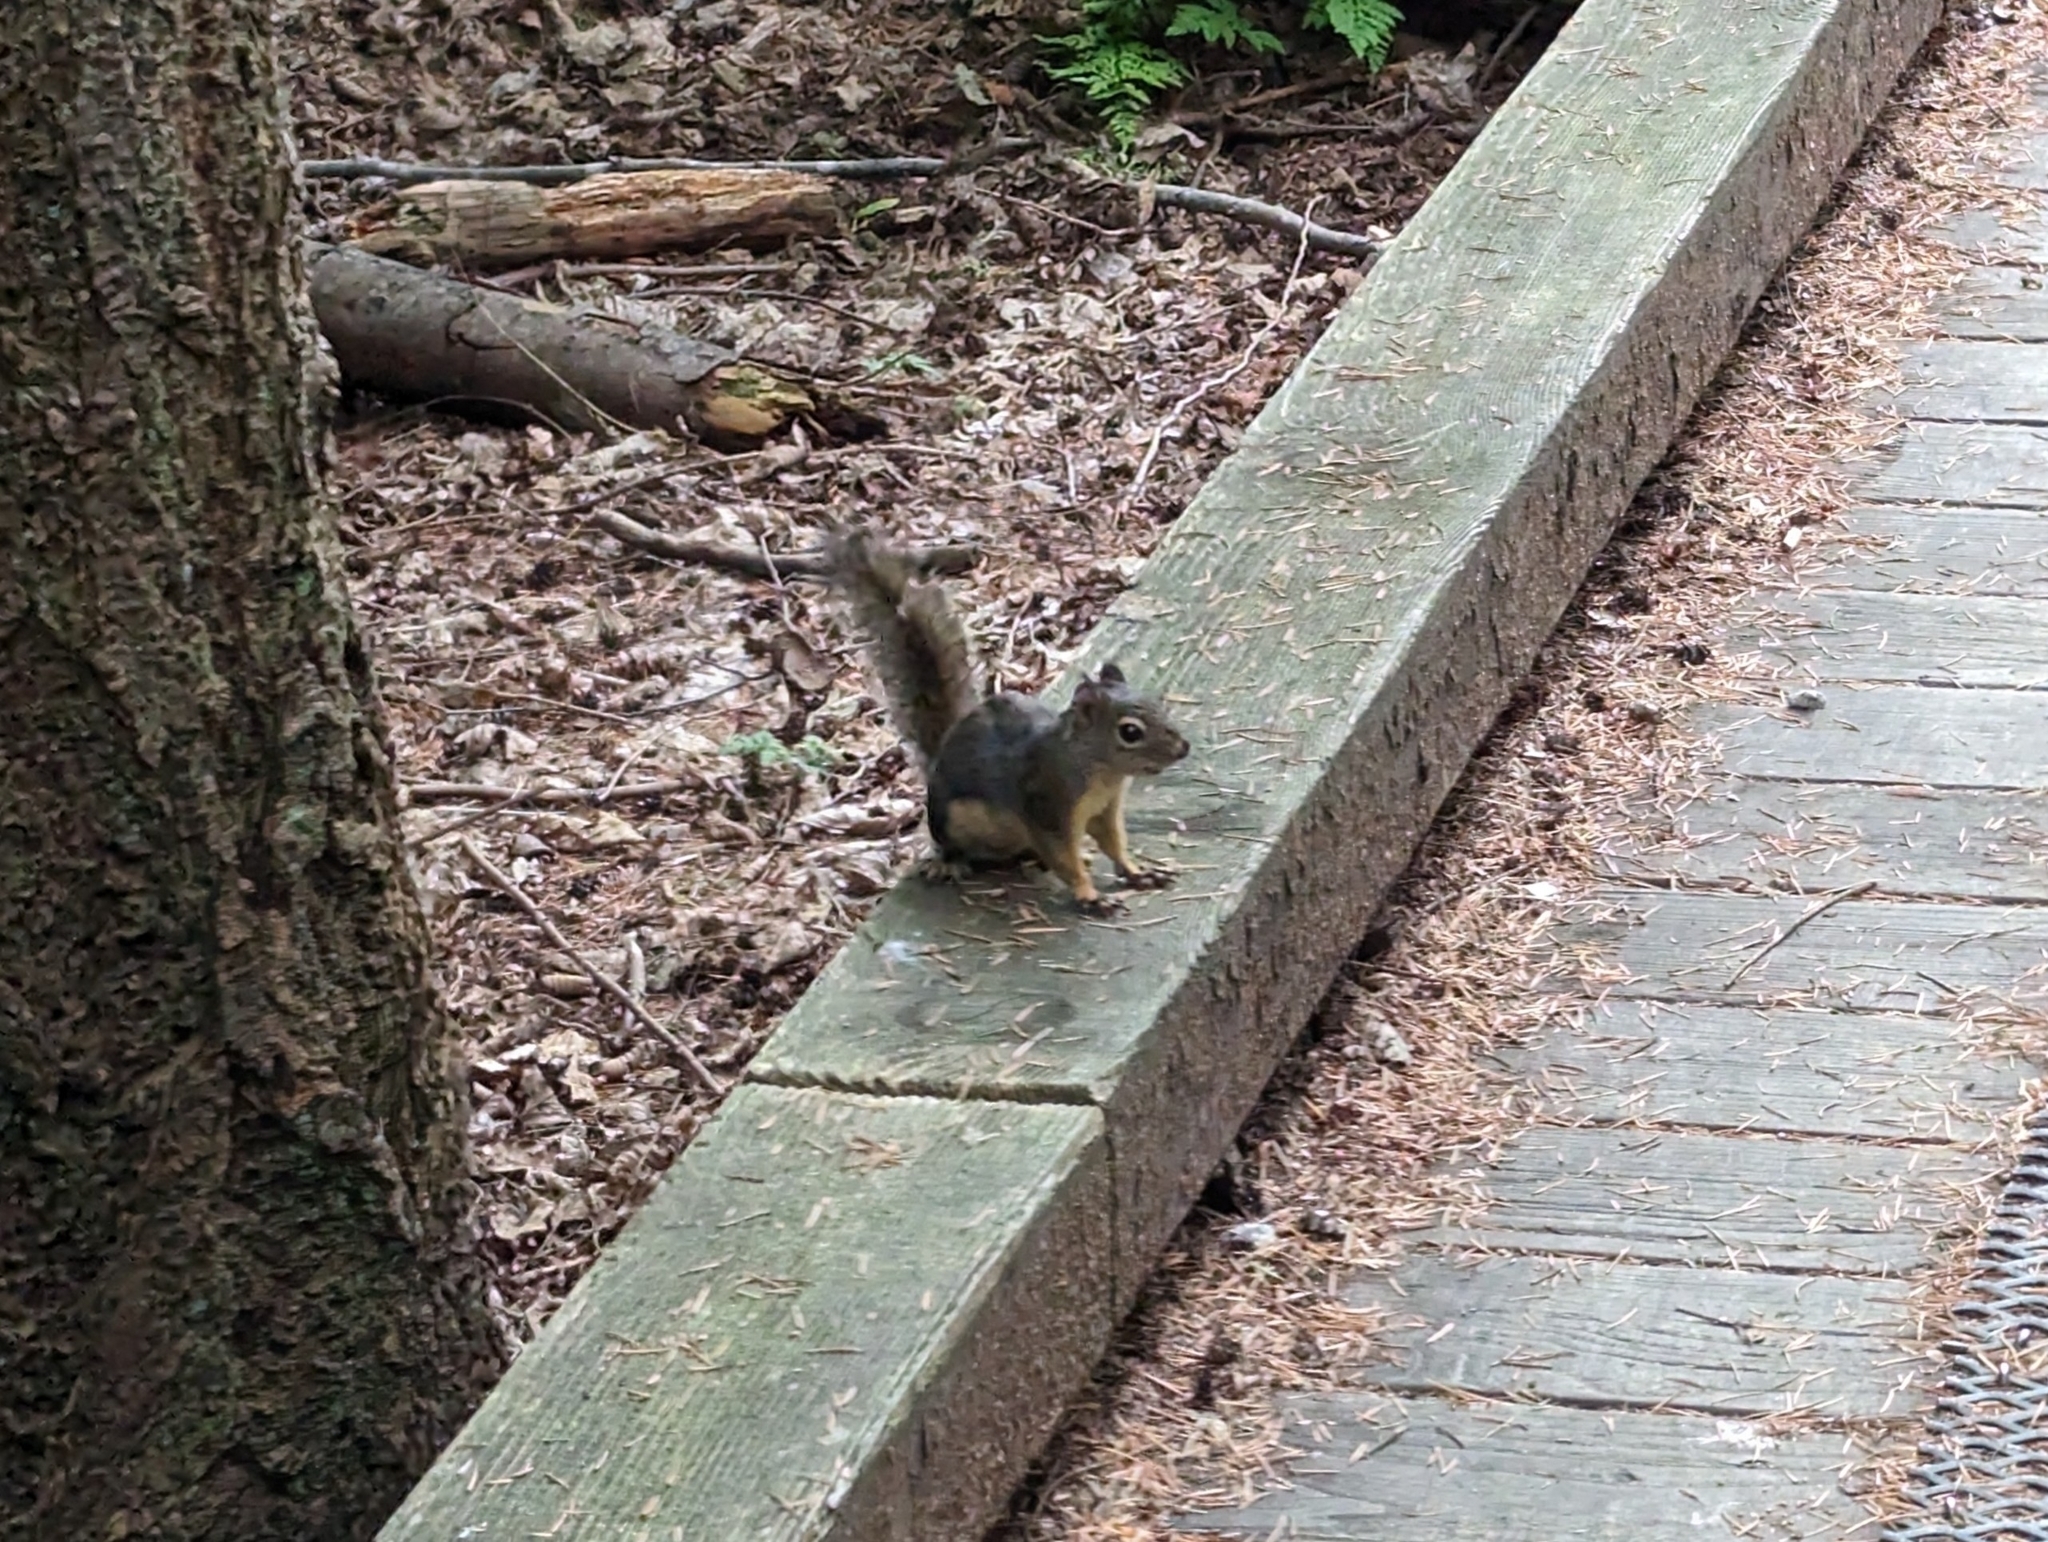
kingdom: Animalia
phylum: Chordata
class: Mammalia
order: Rodentia
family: Sciuridae
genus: Tamiasciurus
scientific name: Tamiasciurus douglasii
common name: Douglas's squirrel
